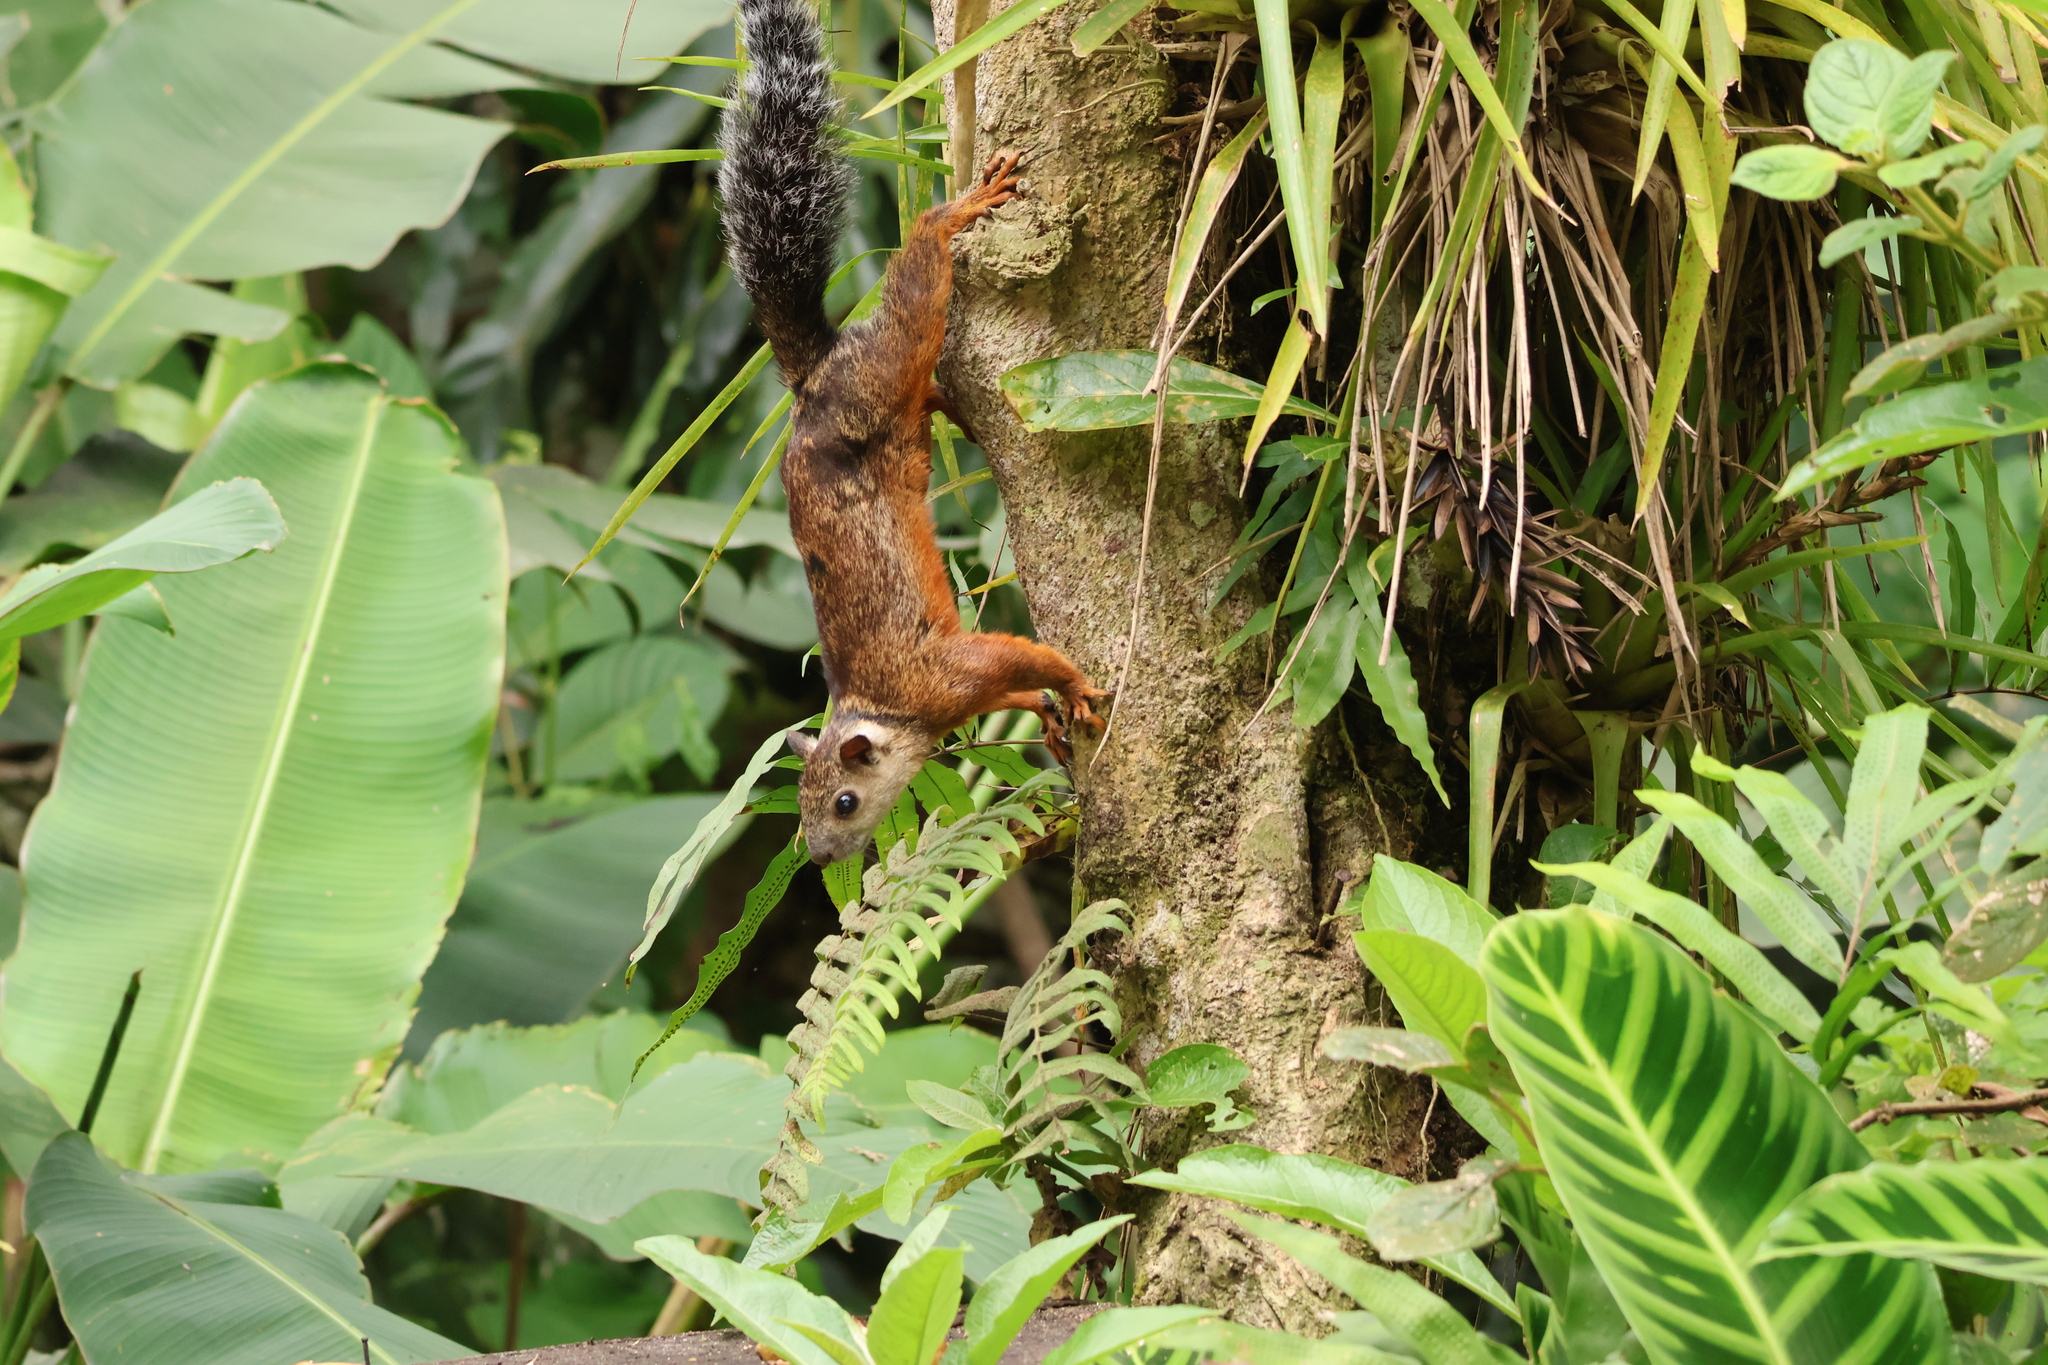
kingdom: Animalia
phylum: Chordata
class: Mammalia
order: Rodentia
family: Sciuridae
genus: Sciurus
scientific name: Sciurus variegatoides
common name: Variegated squirrel
